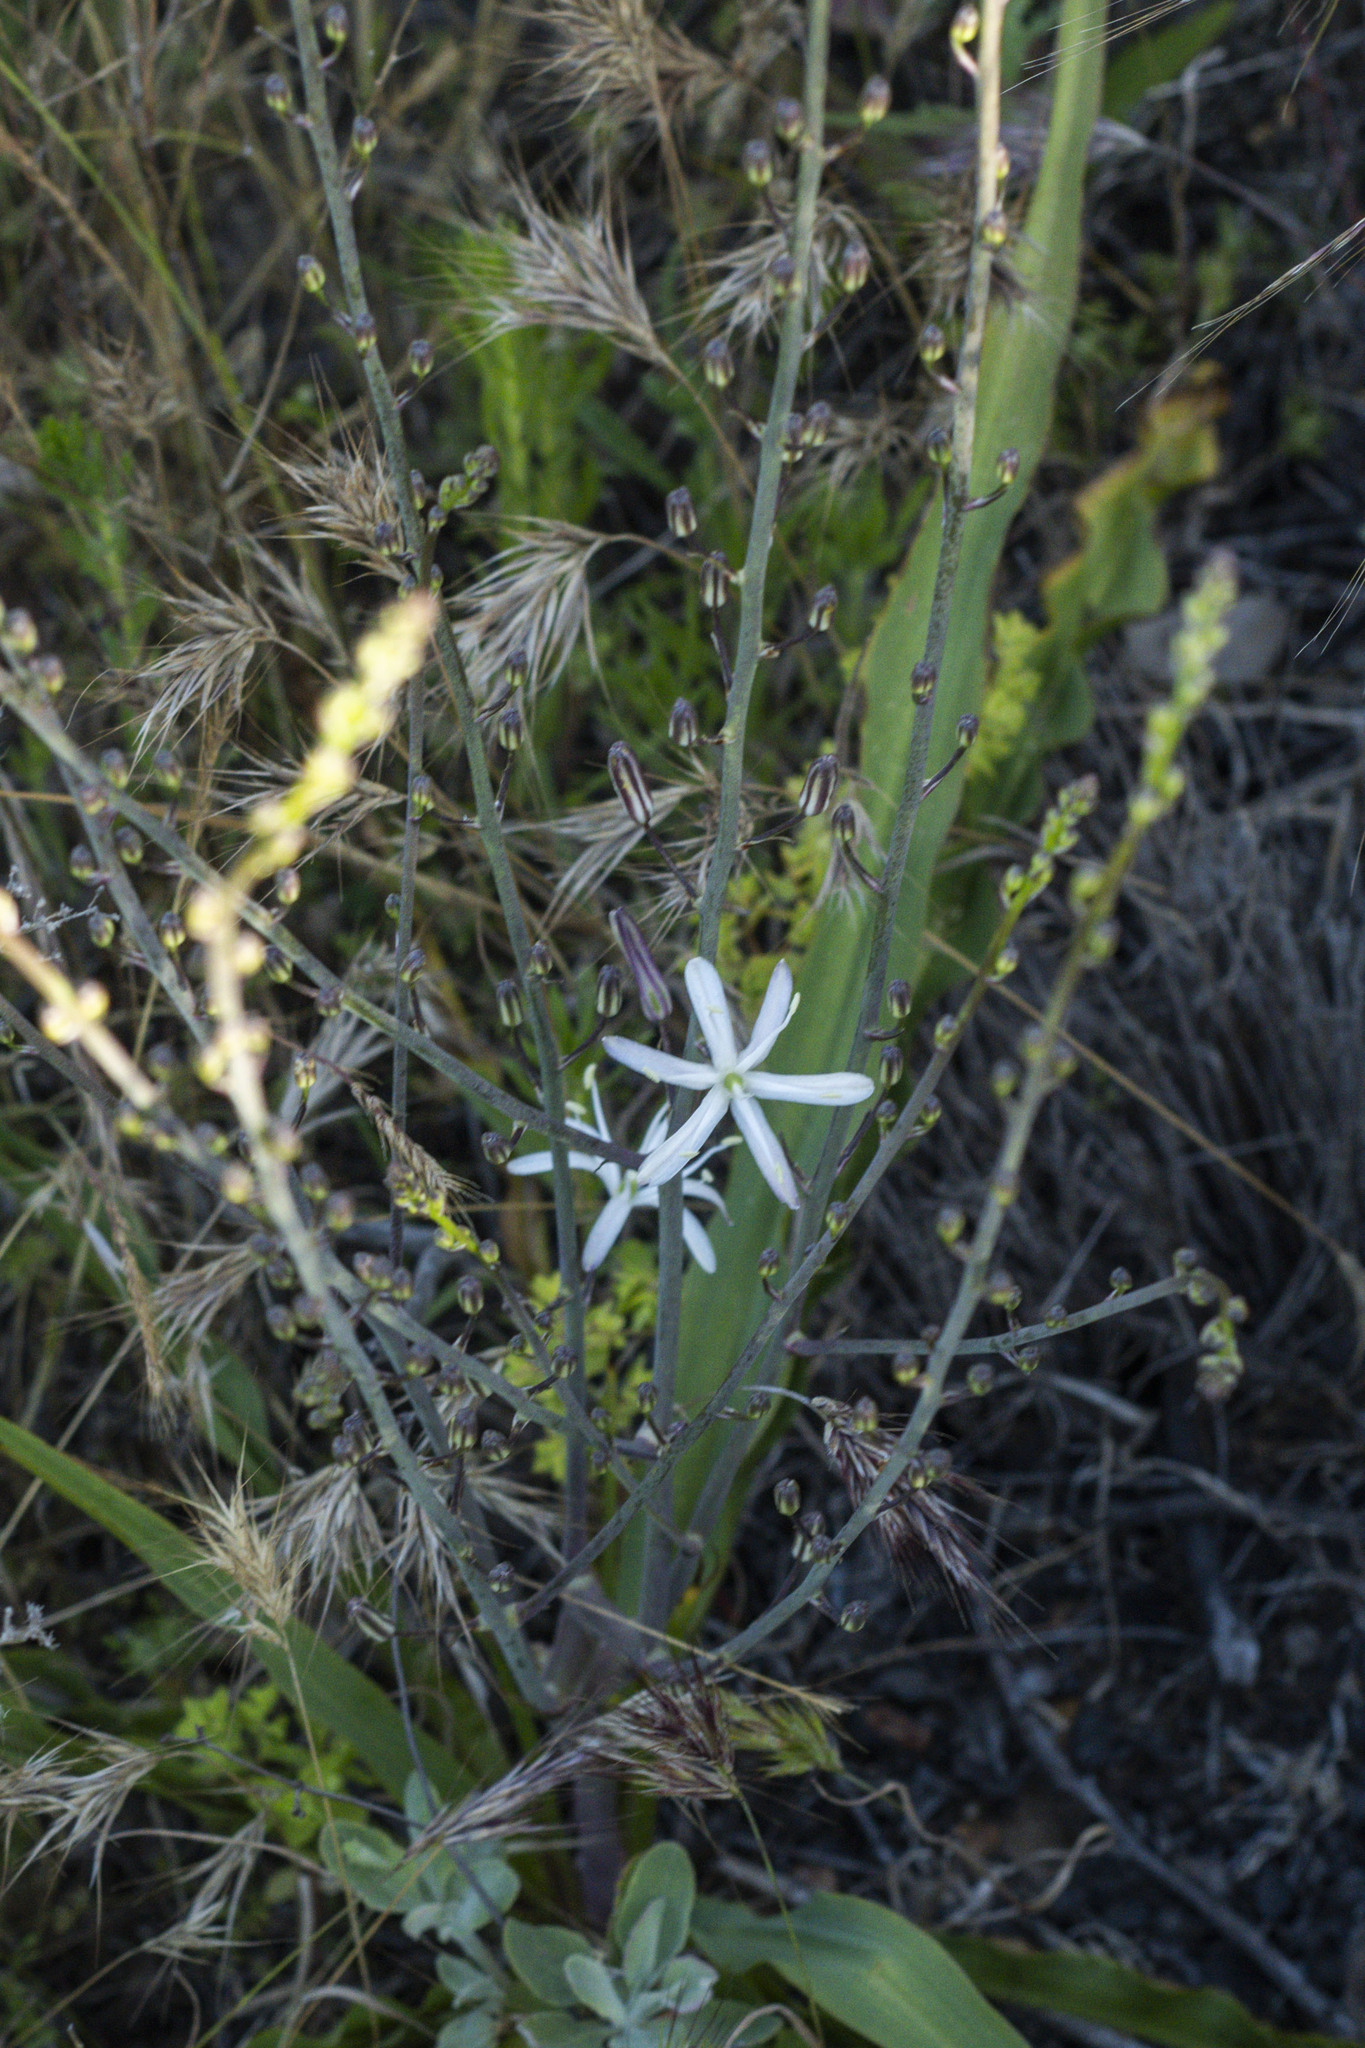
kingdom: Plantae
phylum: Tracheophyta
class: Liliopsida
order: Asparagales
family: Asparagaceae
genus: Chlorogalum
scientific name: Chlorogalum pomeridianum
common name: Amole
